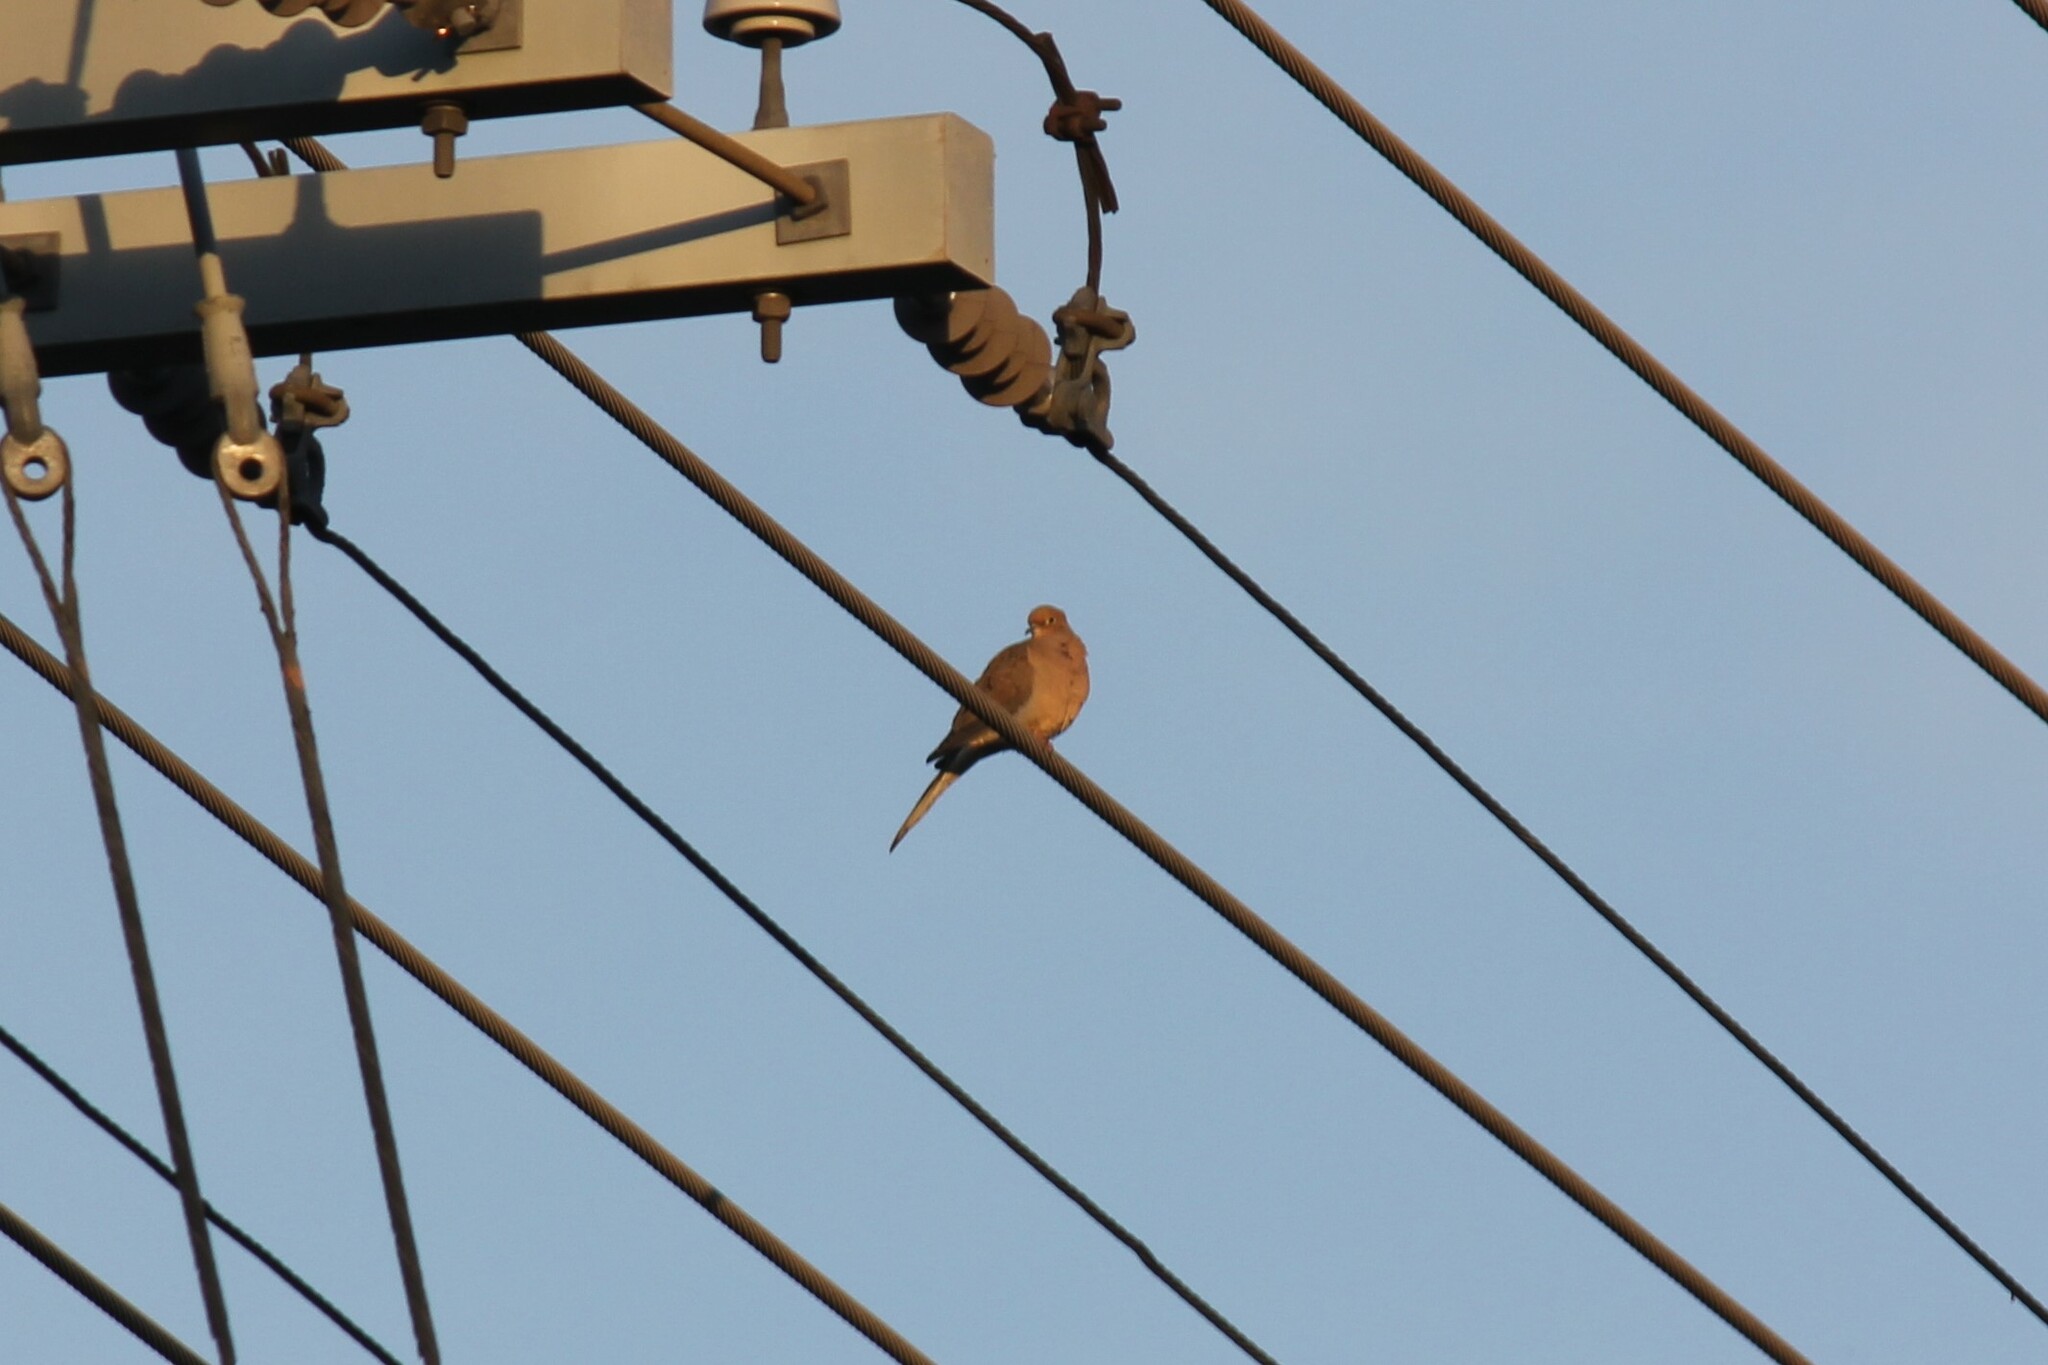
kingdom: Animalia
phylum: Chordata
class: Aves
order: Columbiformes
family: Columbidae
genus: Zenaida
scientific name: Zenaida macroura
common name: Mourning dove
